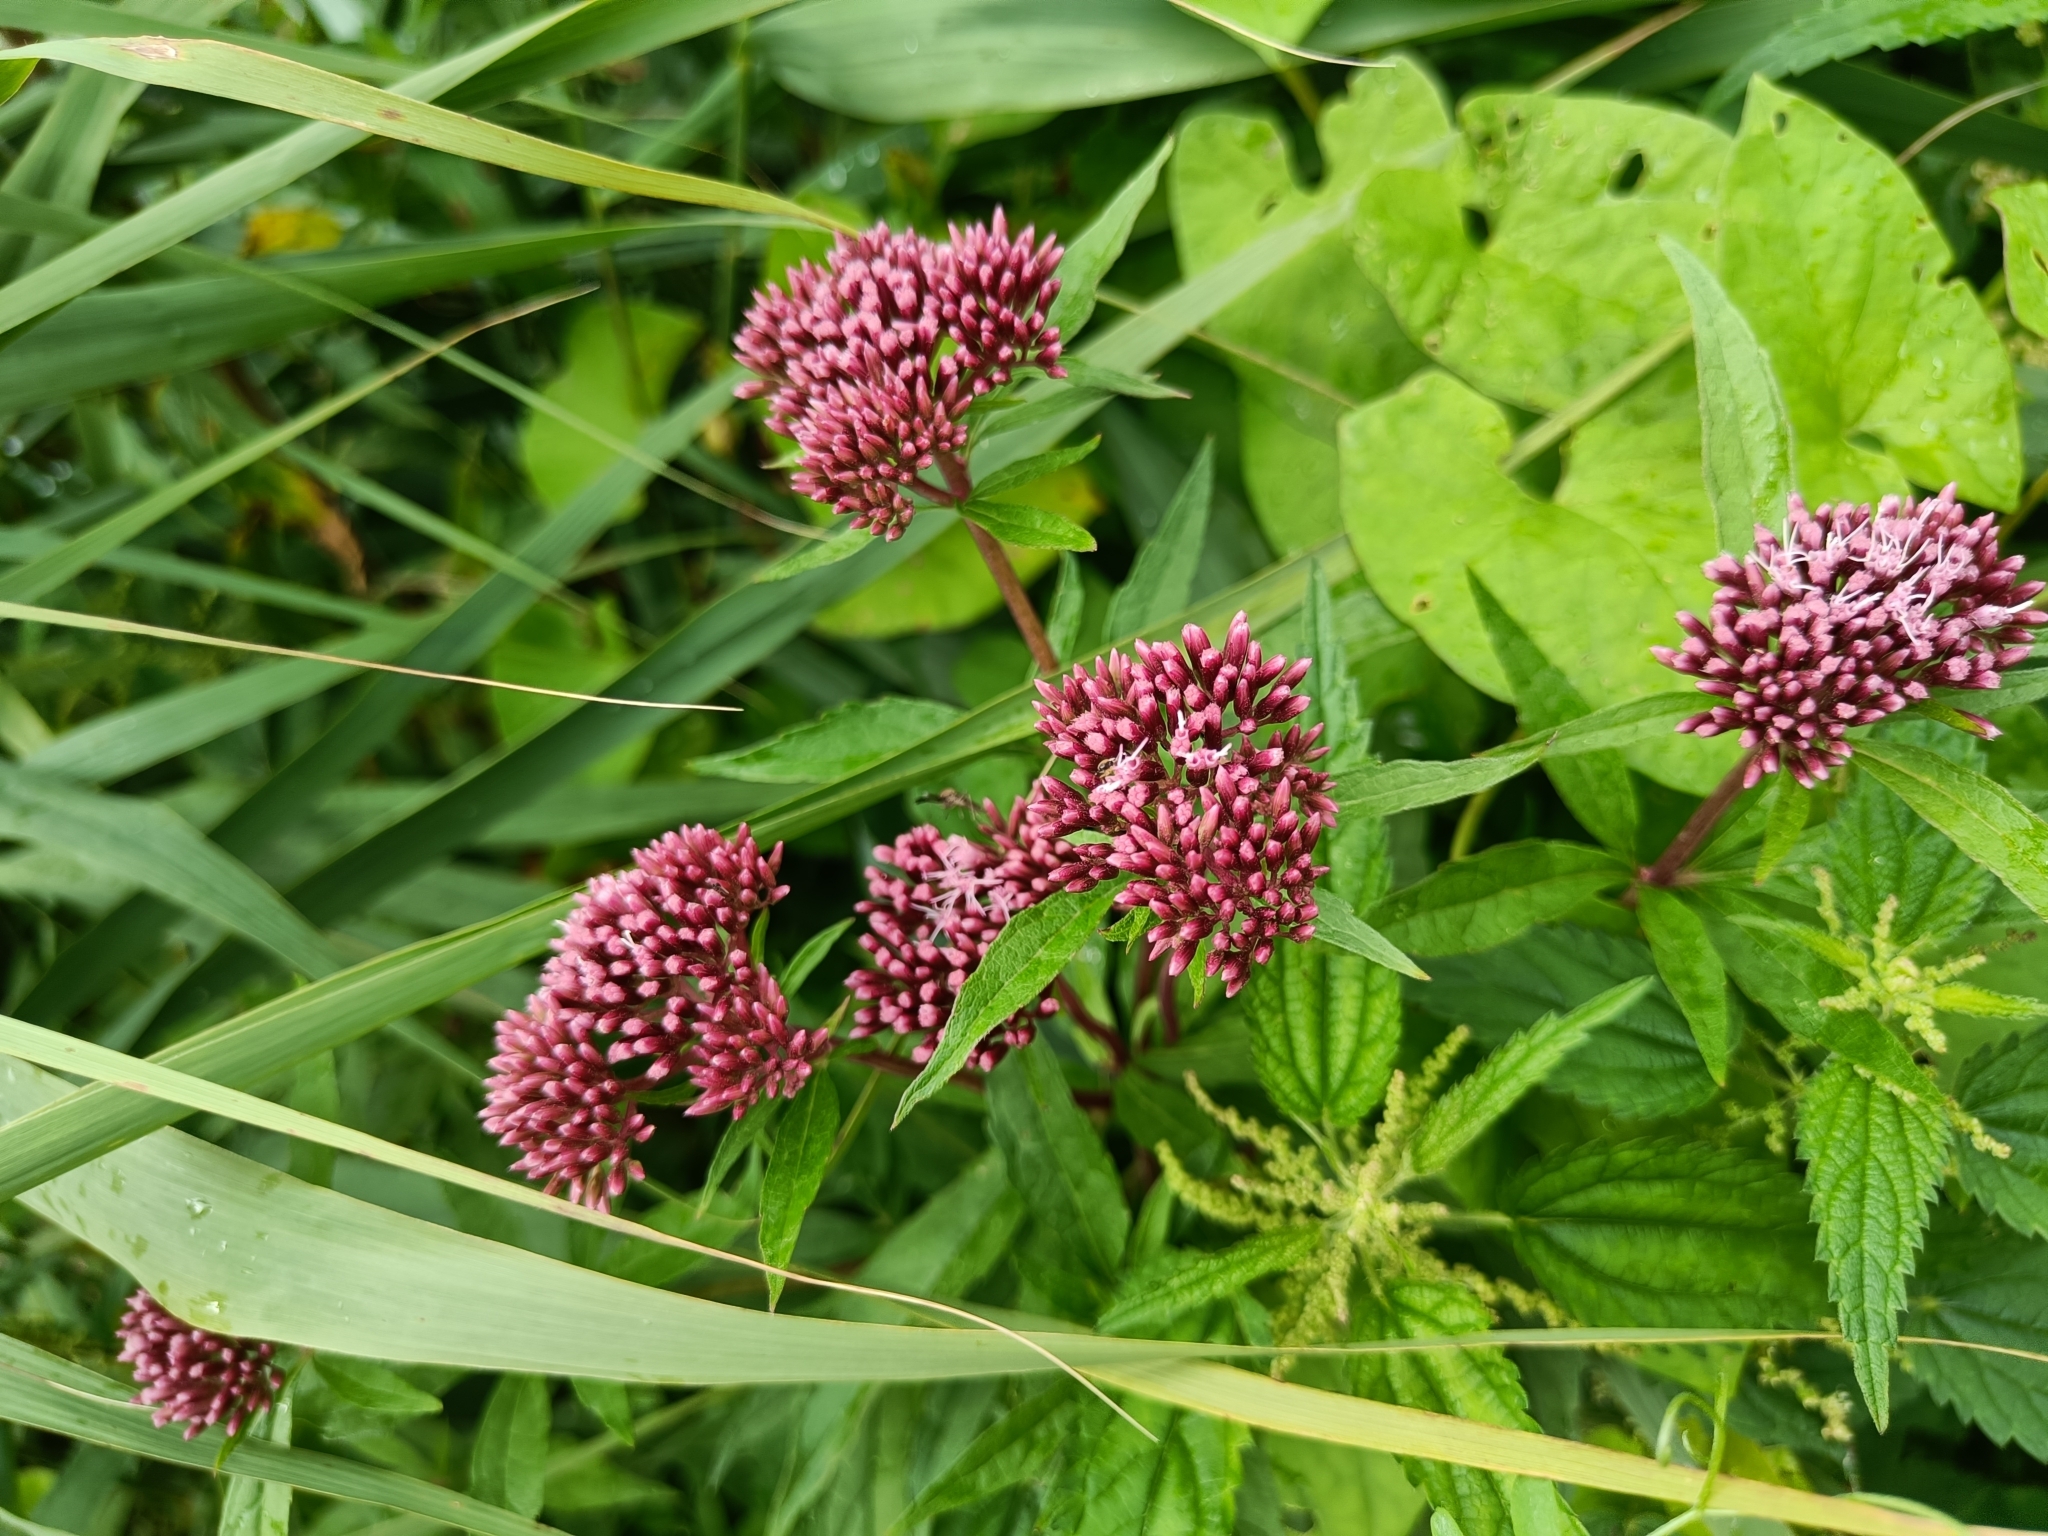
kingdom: Plantae
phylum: Tracheophyta
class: Magnoliopsida
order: Asterales
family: Asteraceae
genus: Eupatorium
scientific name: Eupatorium cannabinum
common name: Hemp-agrimony
